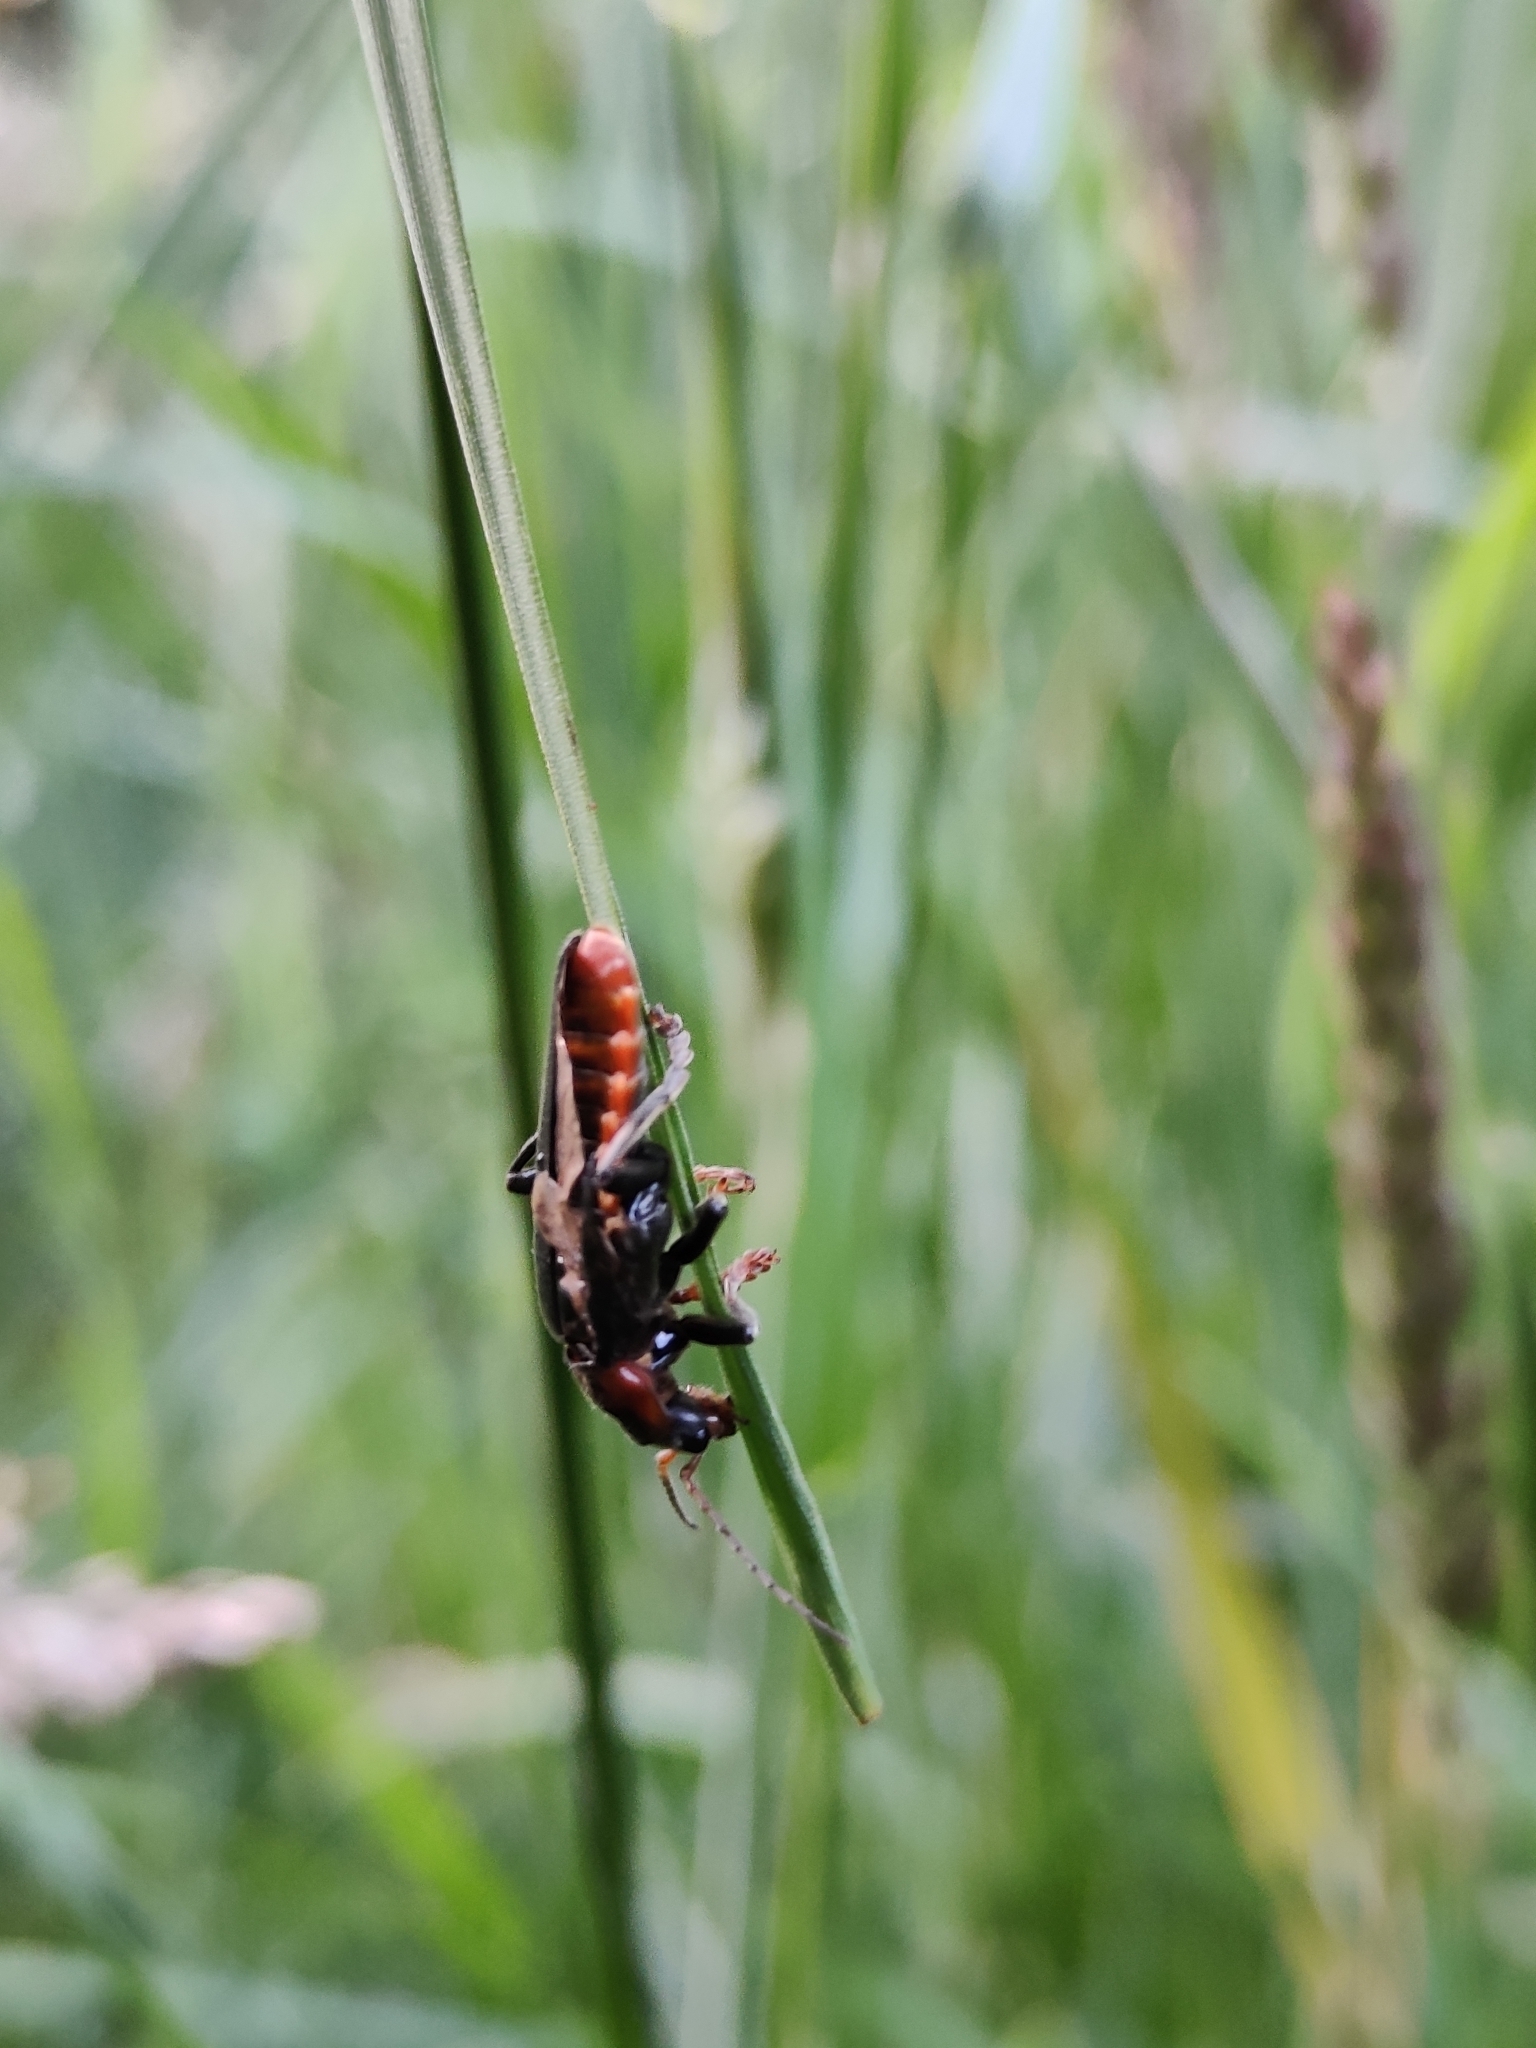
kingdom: Animalia
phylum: Arthropoda
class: Insecta
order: Coleoptera
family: Cantharidae
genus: Cantharis
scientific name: Cantharis fusca
